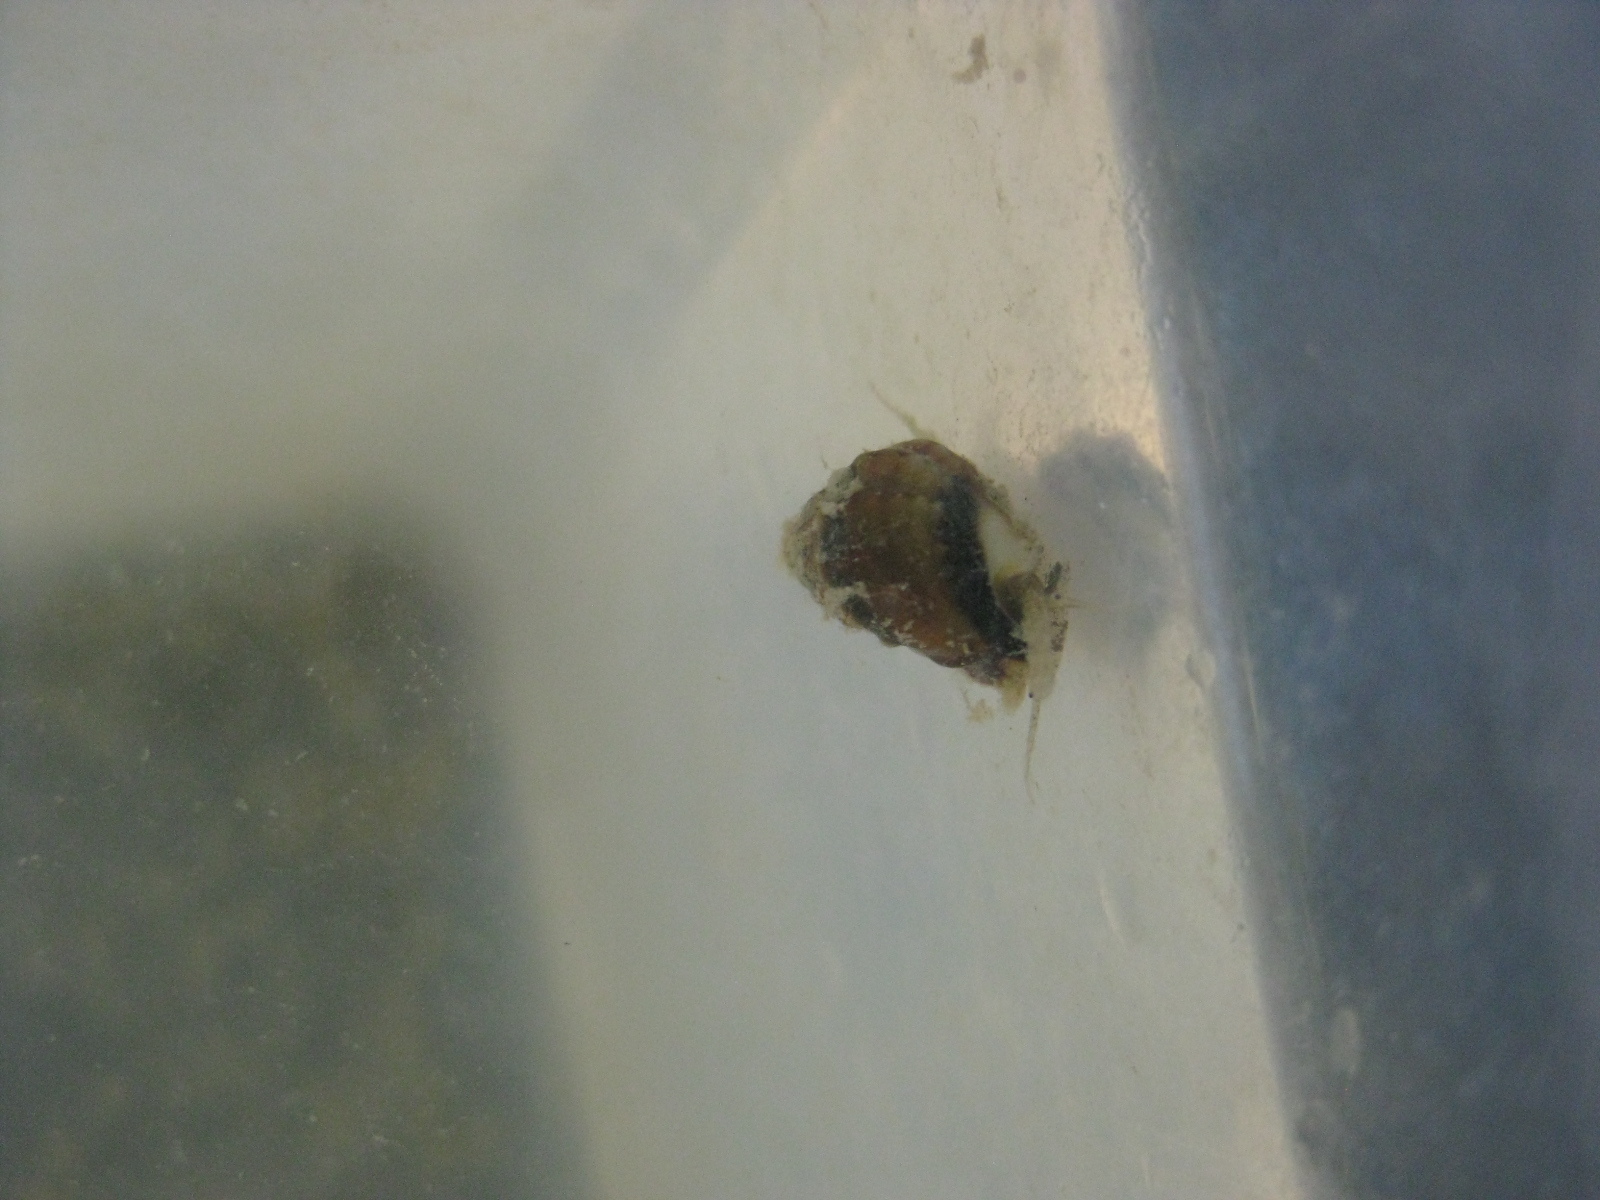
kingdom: Animalia
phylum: Mollusca
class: Gastropoda
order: Neogastropoda
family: Nassariidae
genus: Tritia
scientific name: Tritia burchardi
